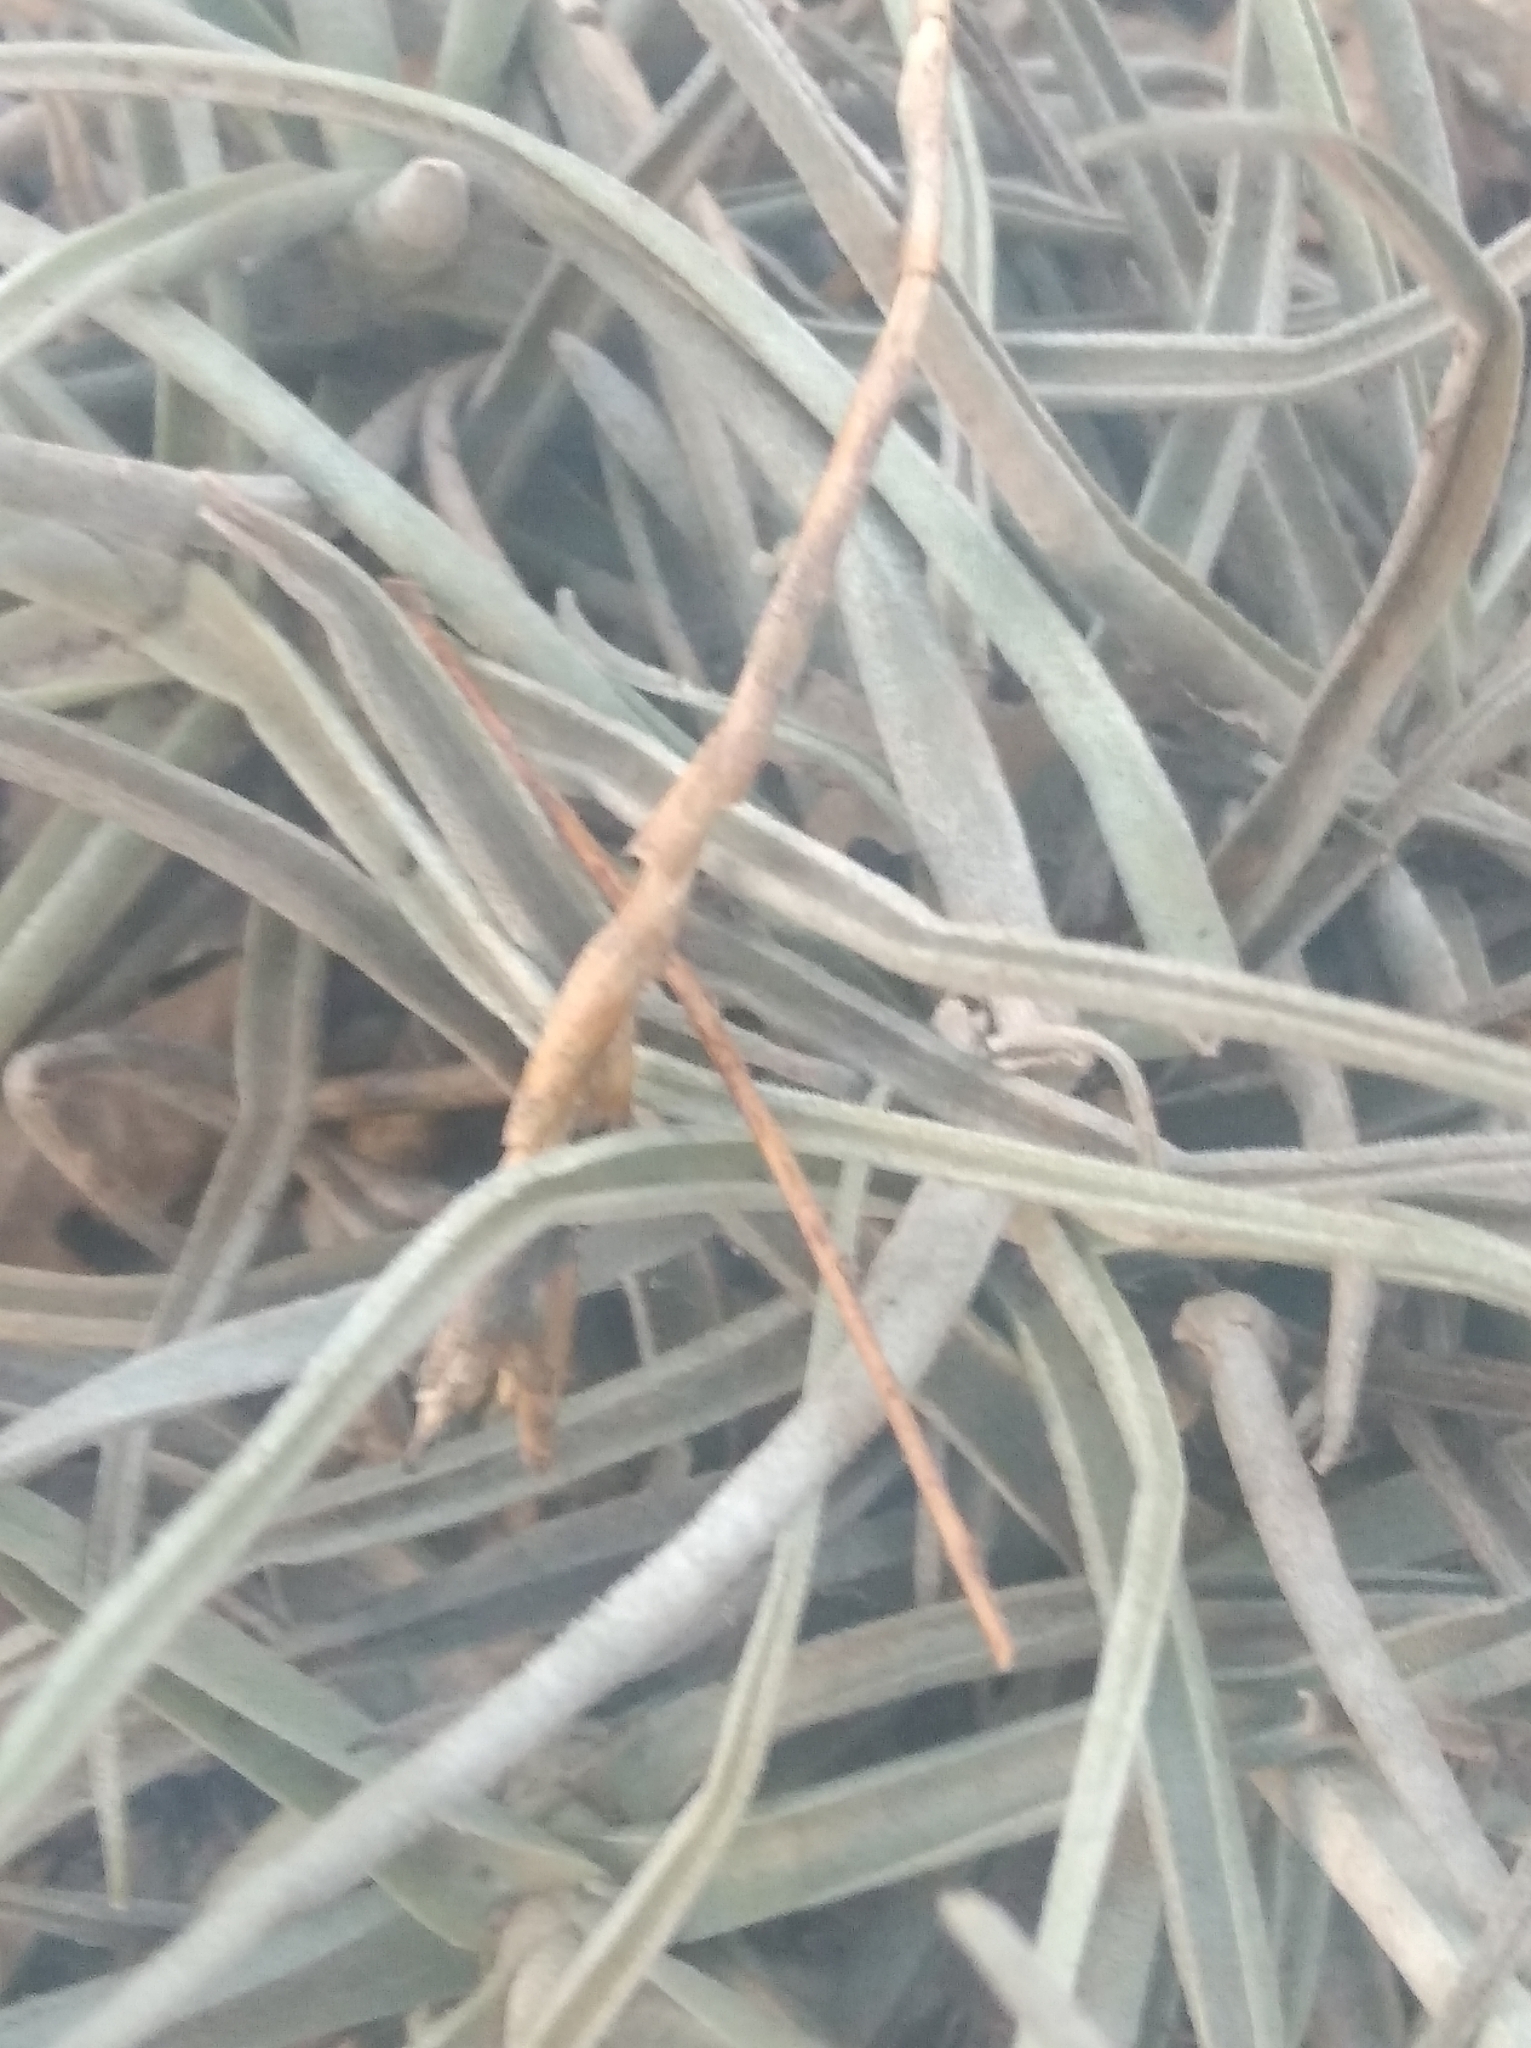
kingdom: Plantae
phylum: Tracheophyta
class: Liliopsida
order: Poales
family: Bromeliaceae
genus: Tillandsia
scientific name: Tillandsia streptocarpa
